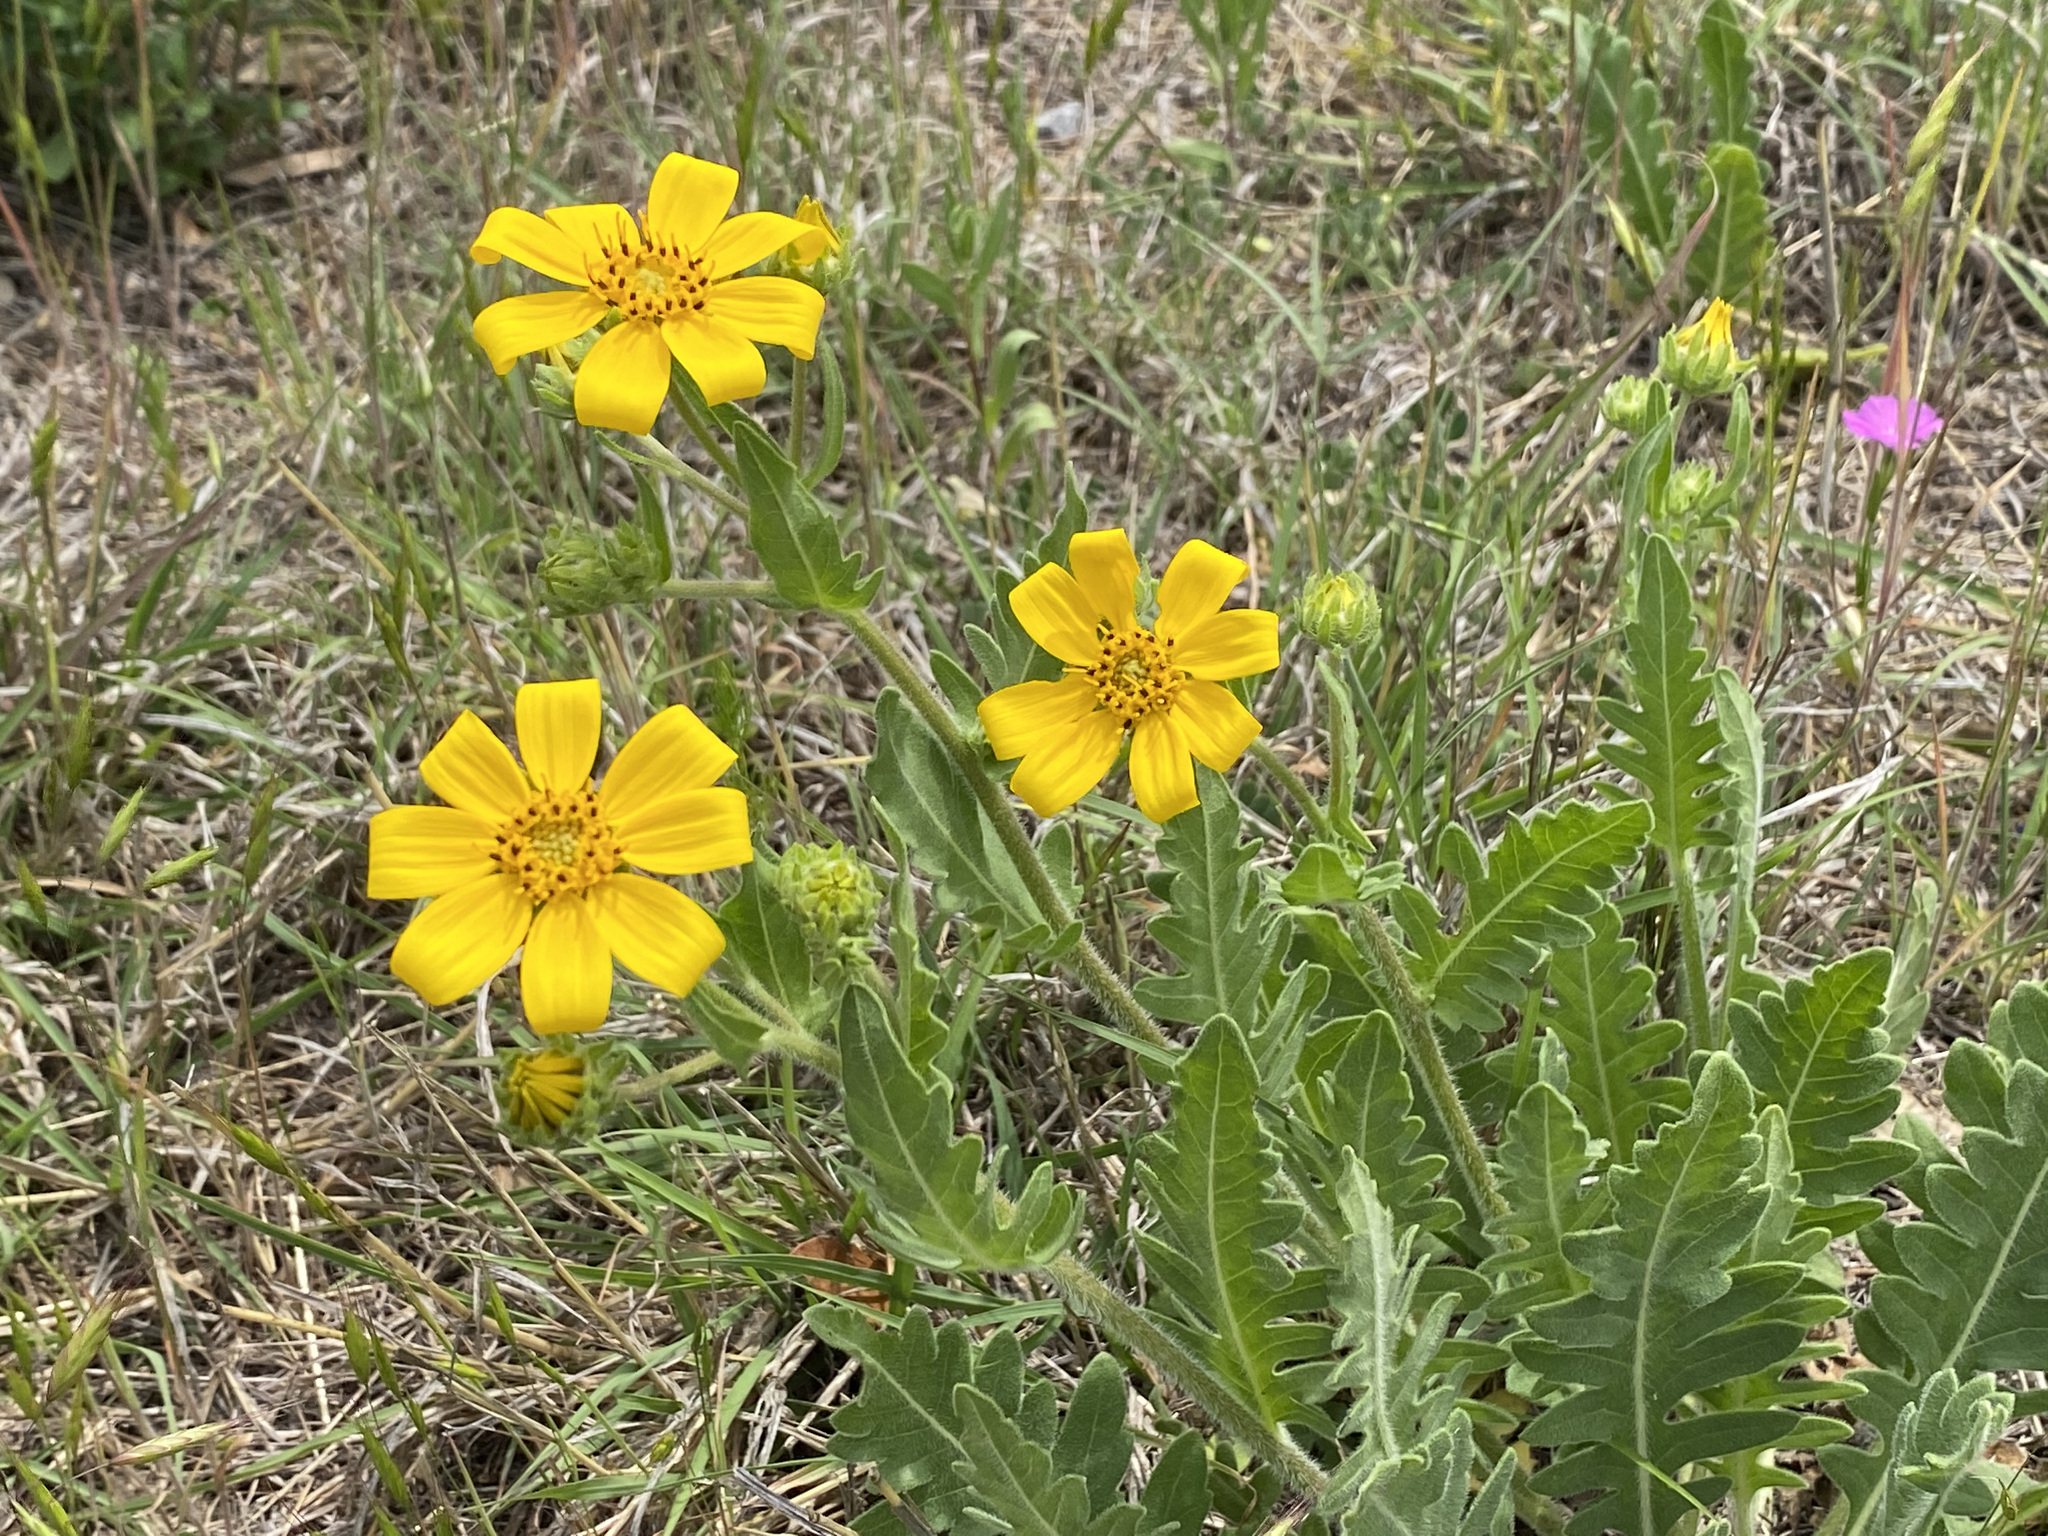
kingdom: Plantae
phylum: Tracheophyta
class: Magnoliopsida
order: Asterales
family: Asteraceae
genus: Engelmannia
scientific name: Engelmannia peristenia
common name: Engelmann's daisy
